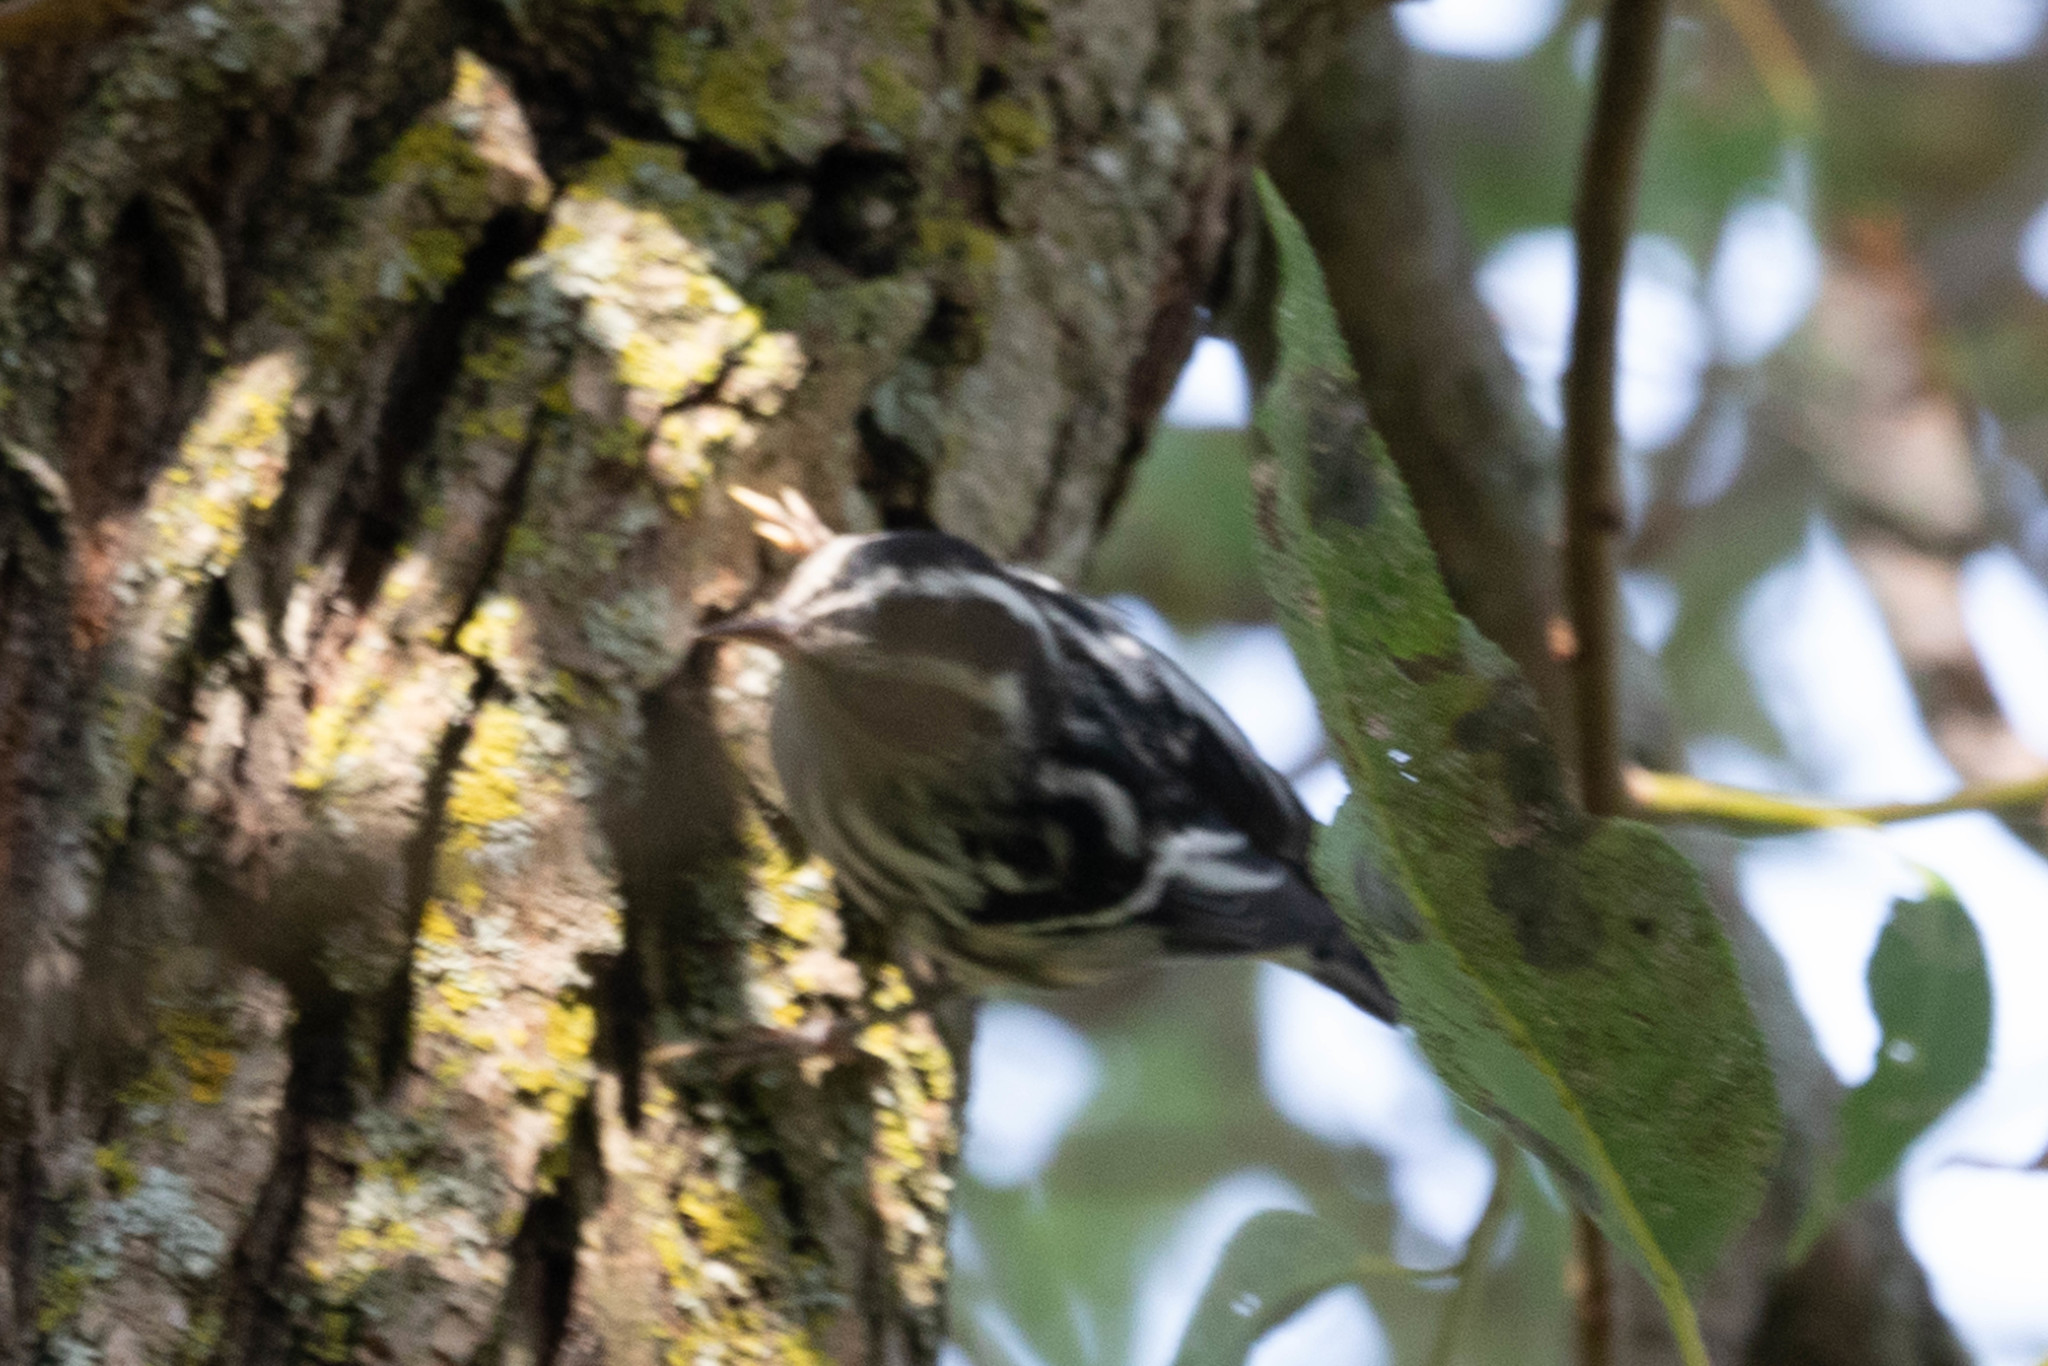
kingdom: Animalia
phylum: Chordata
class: Aves
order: Passeriformes
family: Parulidae
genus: Mniotilta
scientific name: Mniotilta varia
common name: Black-and-white warbler
